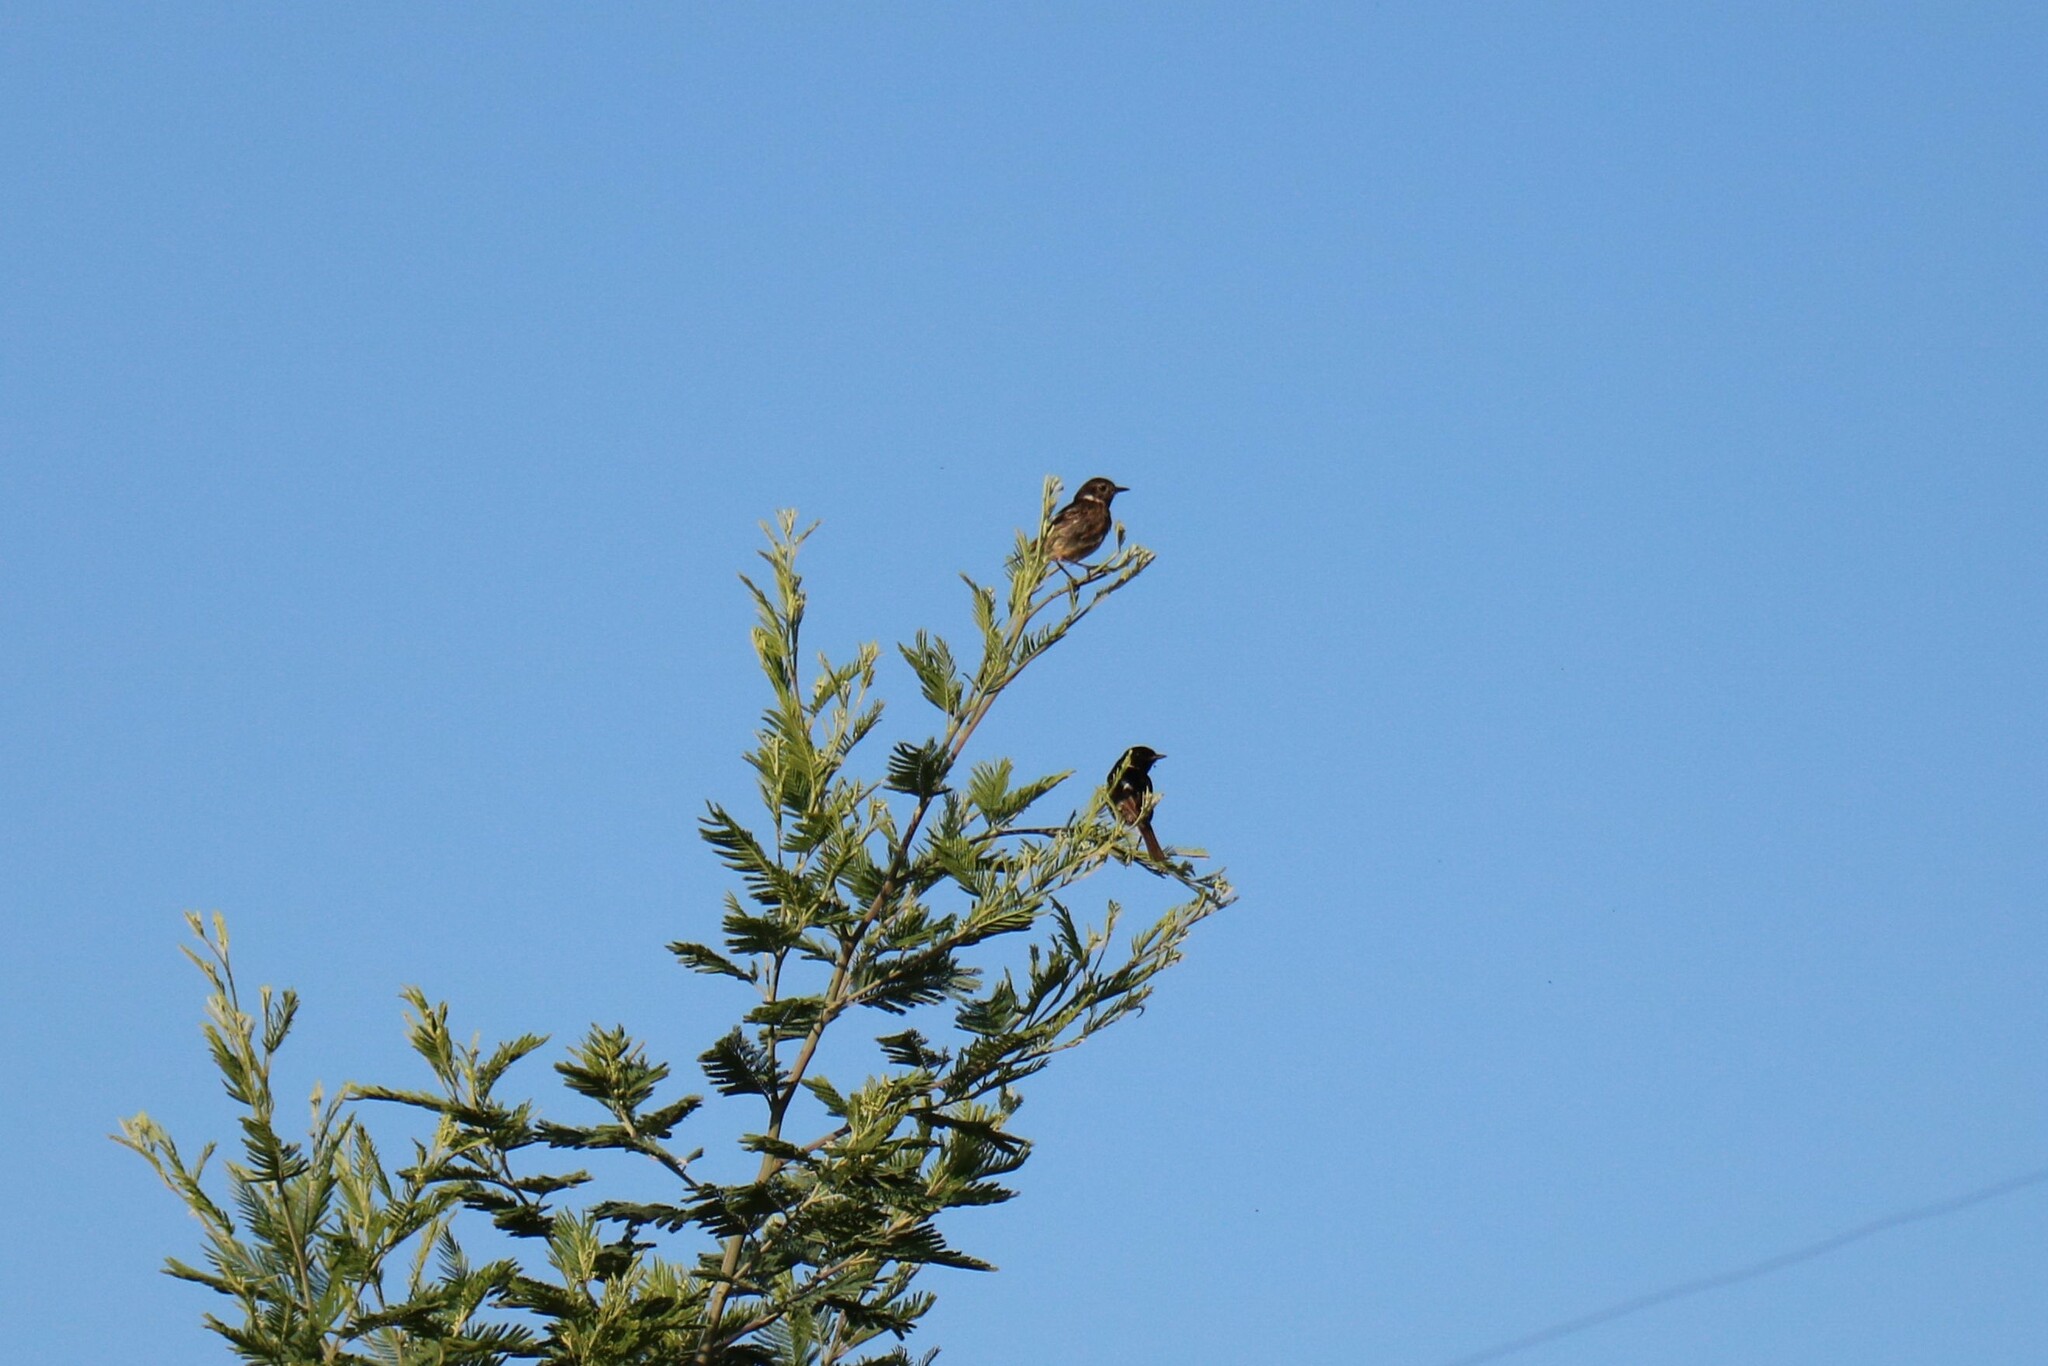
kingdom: Animalia
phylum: Chordata
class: Aves
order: Passeriformes
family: Muscicapidae
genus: Saxicola
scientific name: Saxicola rubicola
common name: European stonechat
